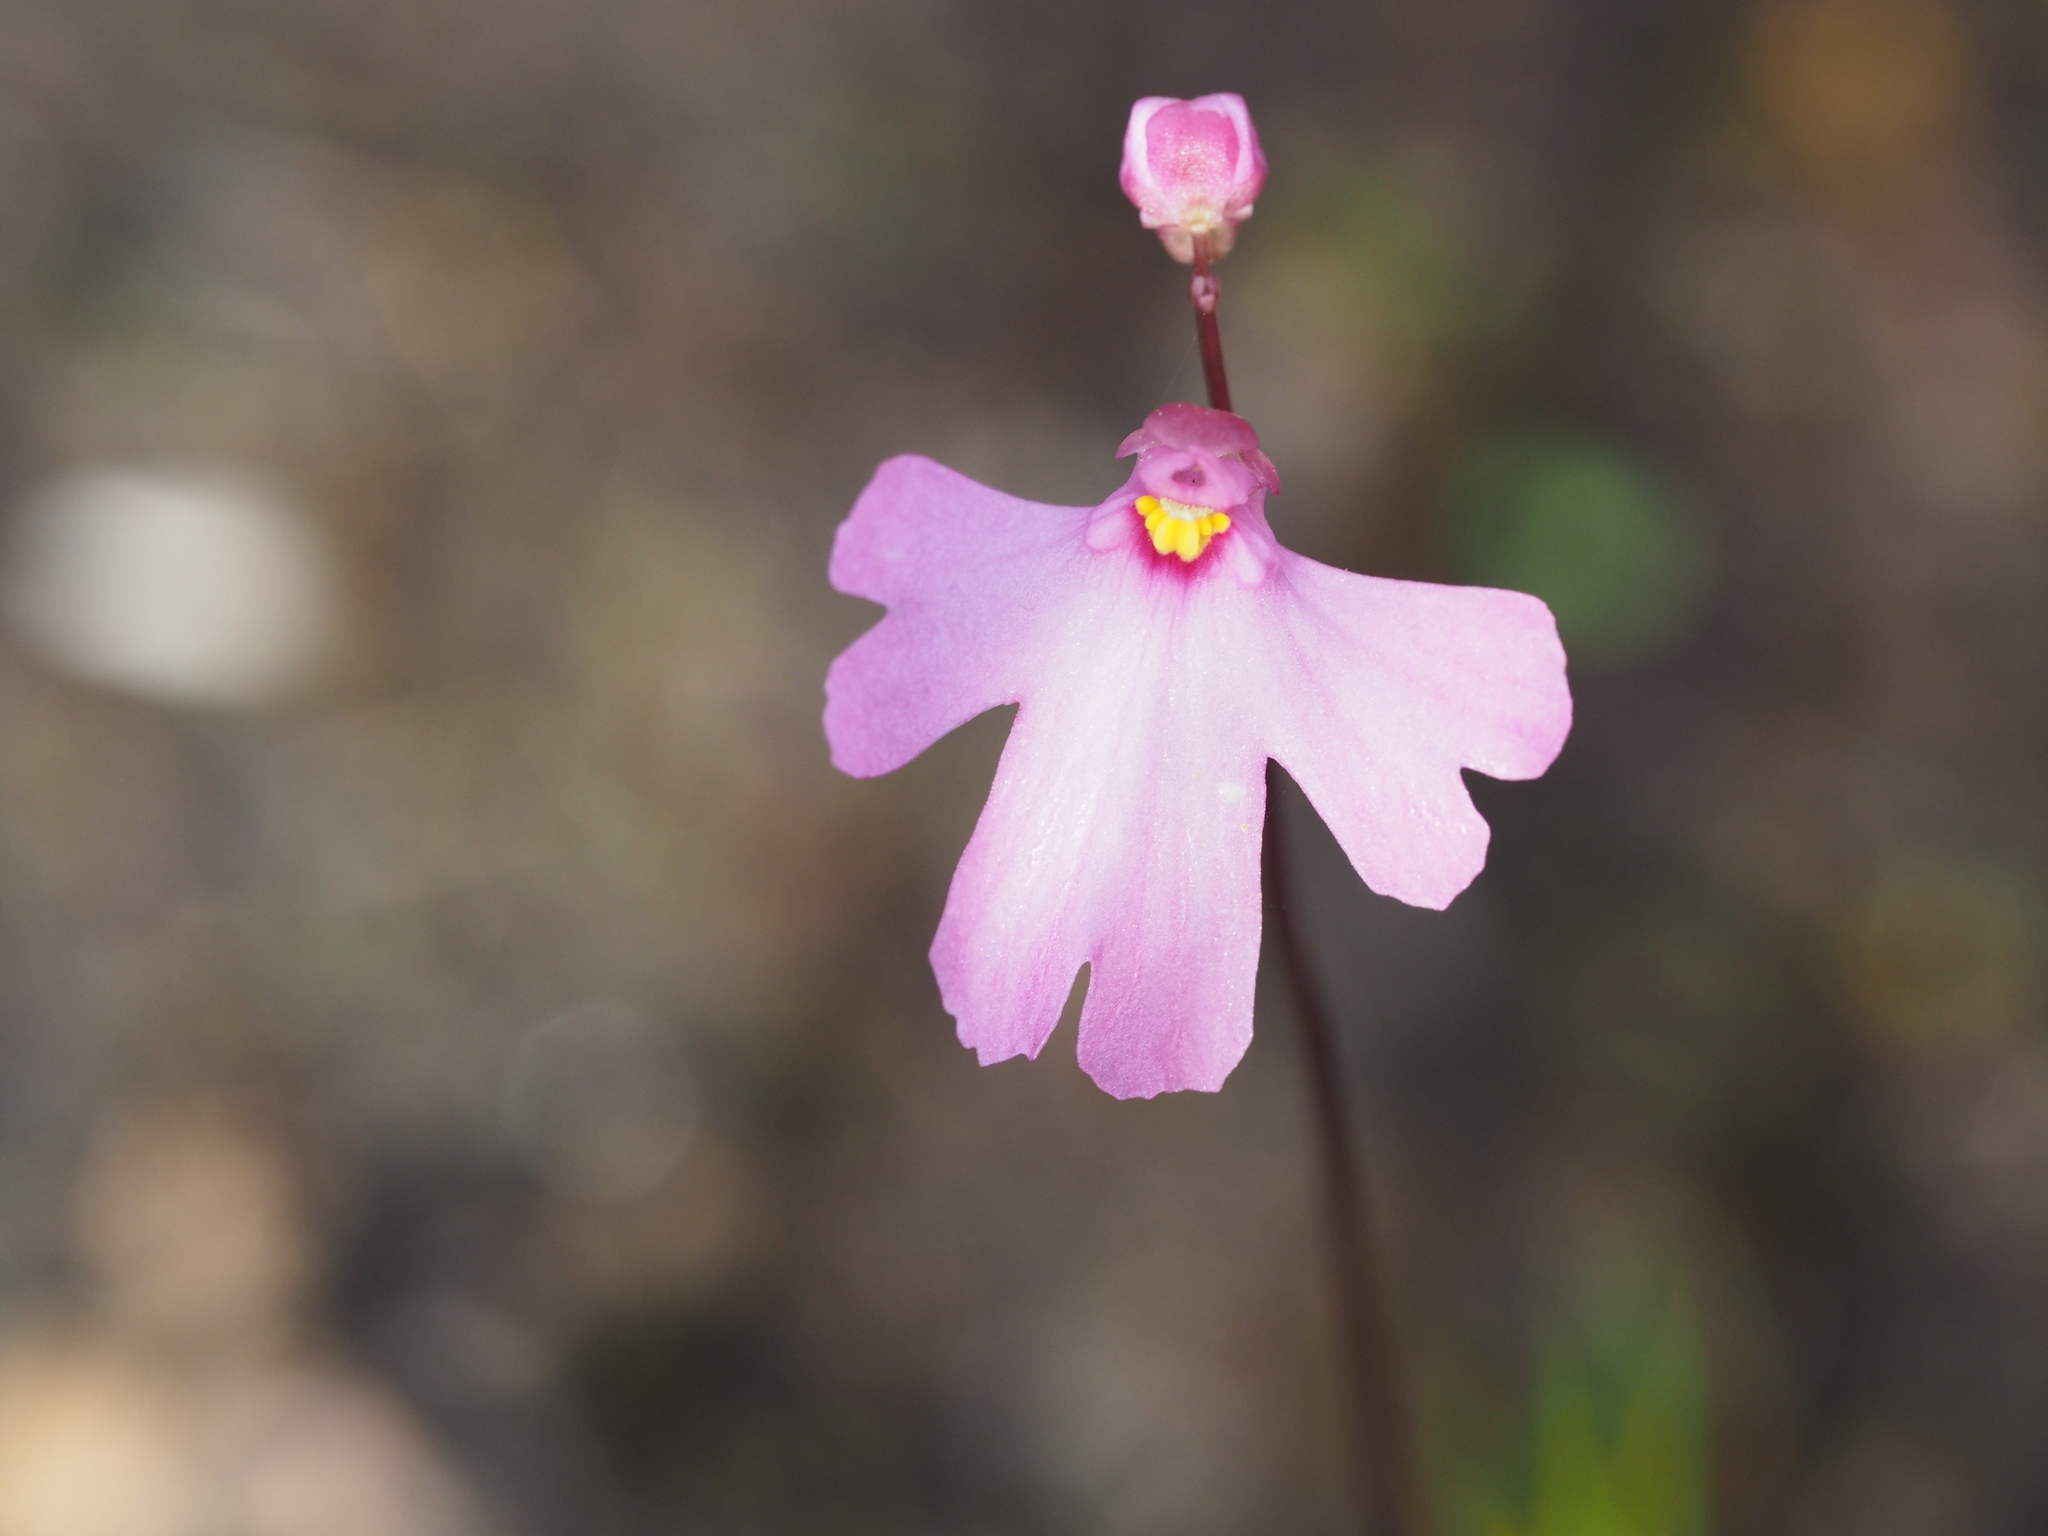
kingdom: Plantae
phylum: Tracheophyta
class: Magnoliopsida
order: Lamiales
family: Lentibulariaceae
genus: Utricularia
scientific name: Utricularia multifida
